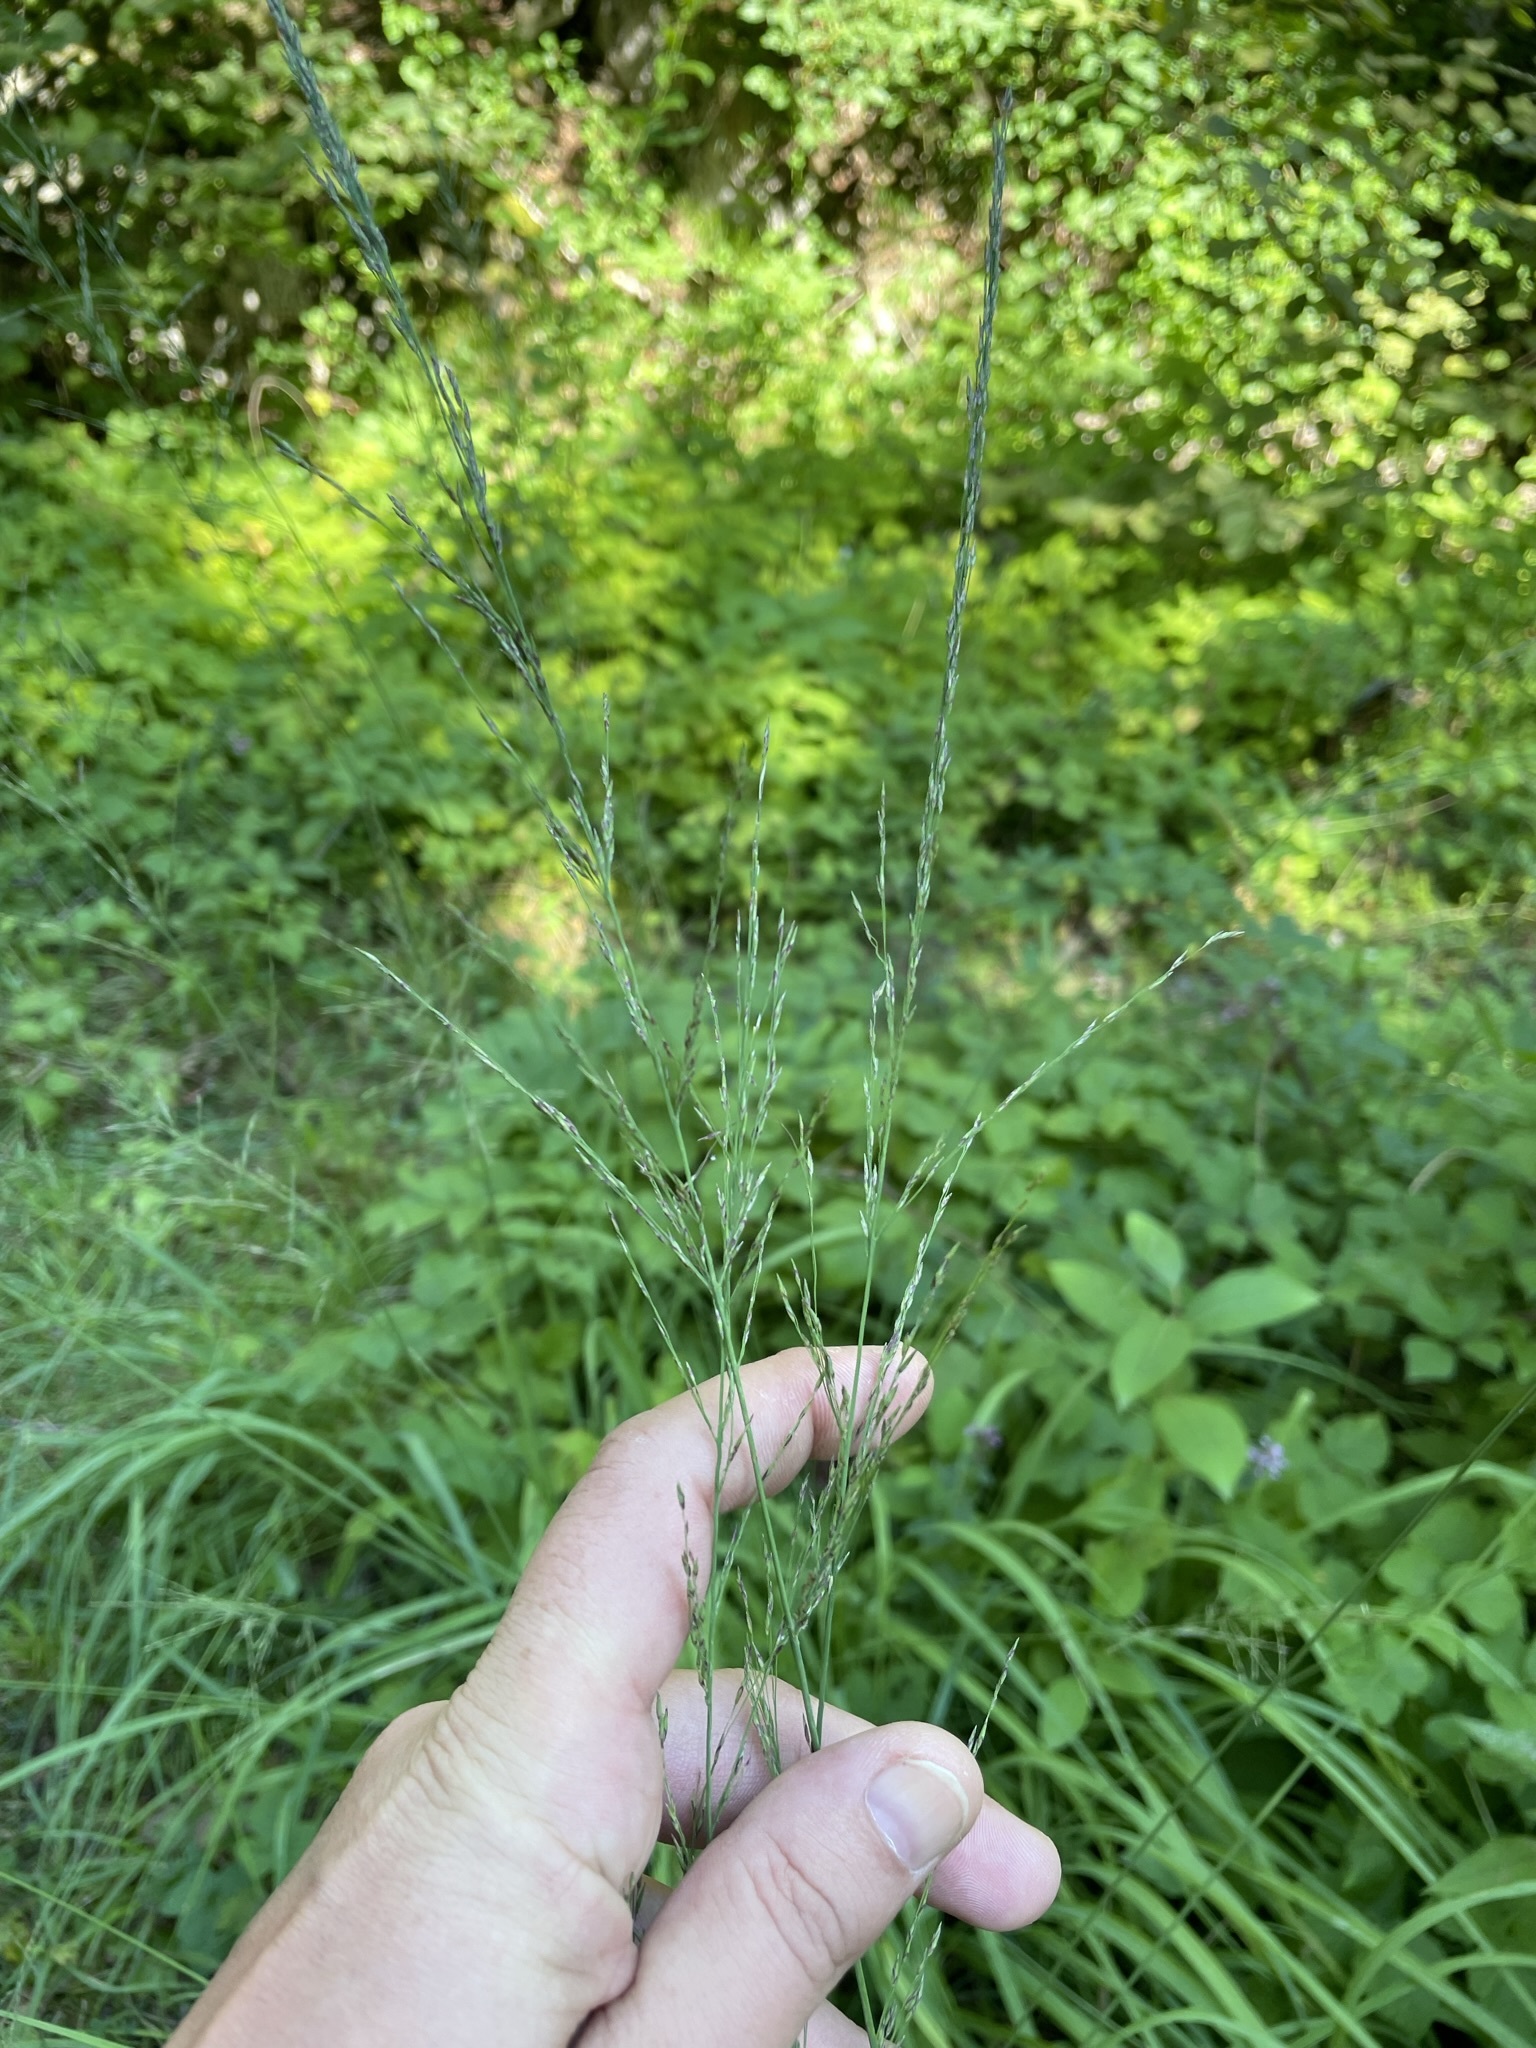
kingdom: Plantae
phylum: Tracheophyta
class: Liliopsida
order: Poales
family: Poaceae
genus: Molinia
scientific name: Molinia caerulea
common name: Purple moor-grass
